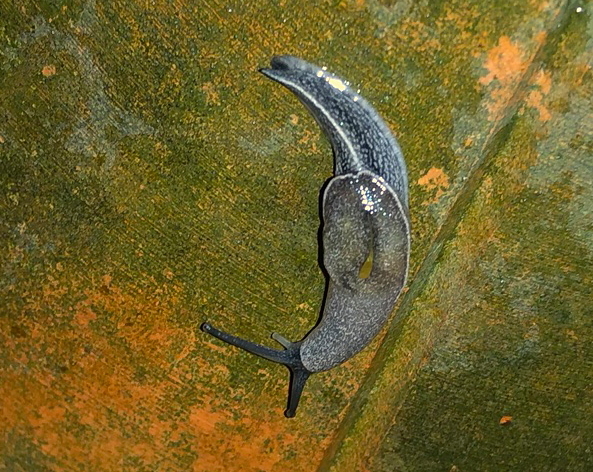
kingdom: Animalia
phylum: Mollusca
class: Gastropoda
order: Stylommatophora
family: Ariophantidae
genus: Parmarion
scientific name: Parmarion martensi
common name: Semi-slug
